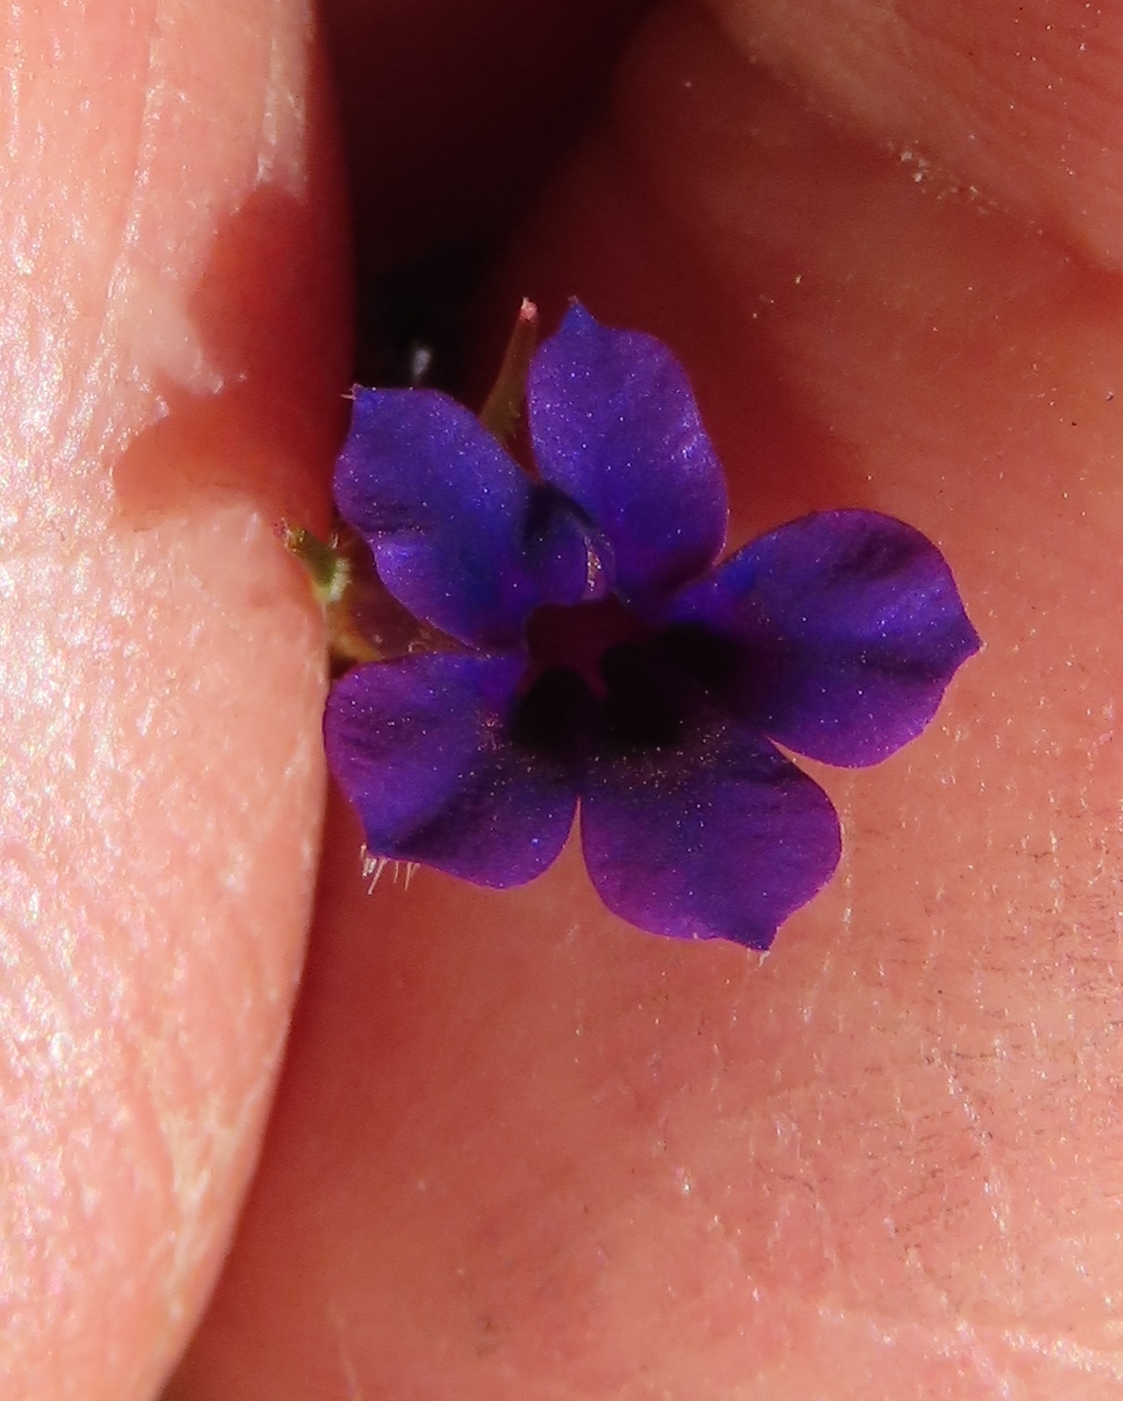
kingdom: Plantae
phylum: Tracheophyta
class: Magnoliopsida
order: Asterales
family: Campanulaceae
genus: Monopsis
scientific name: Monopsis debilis
